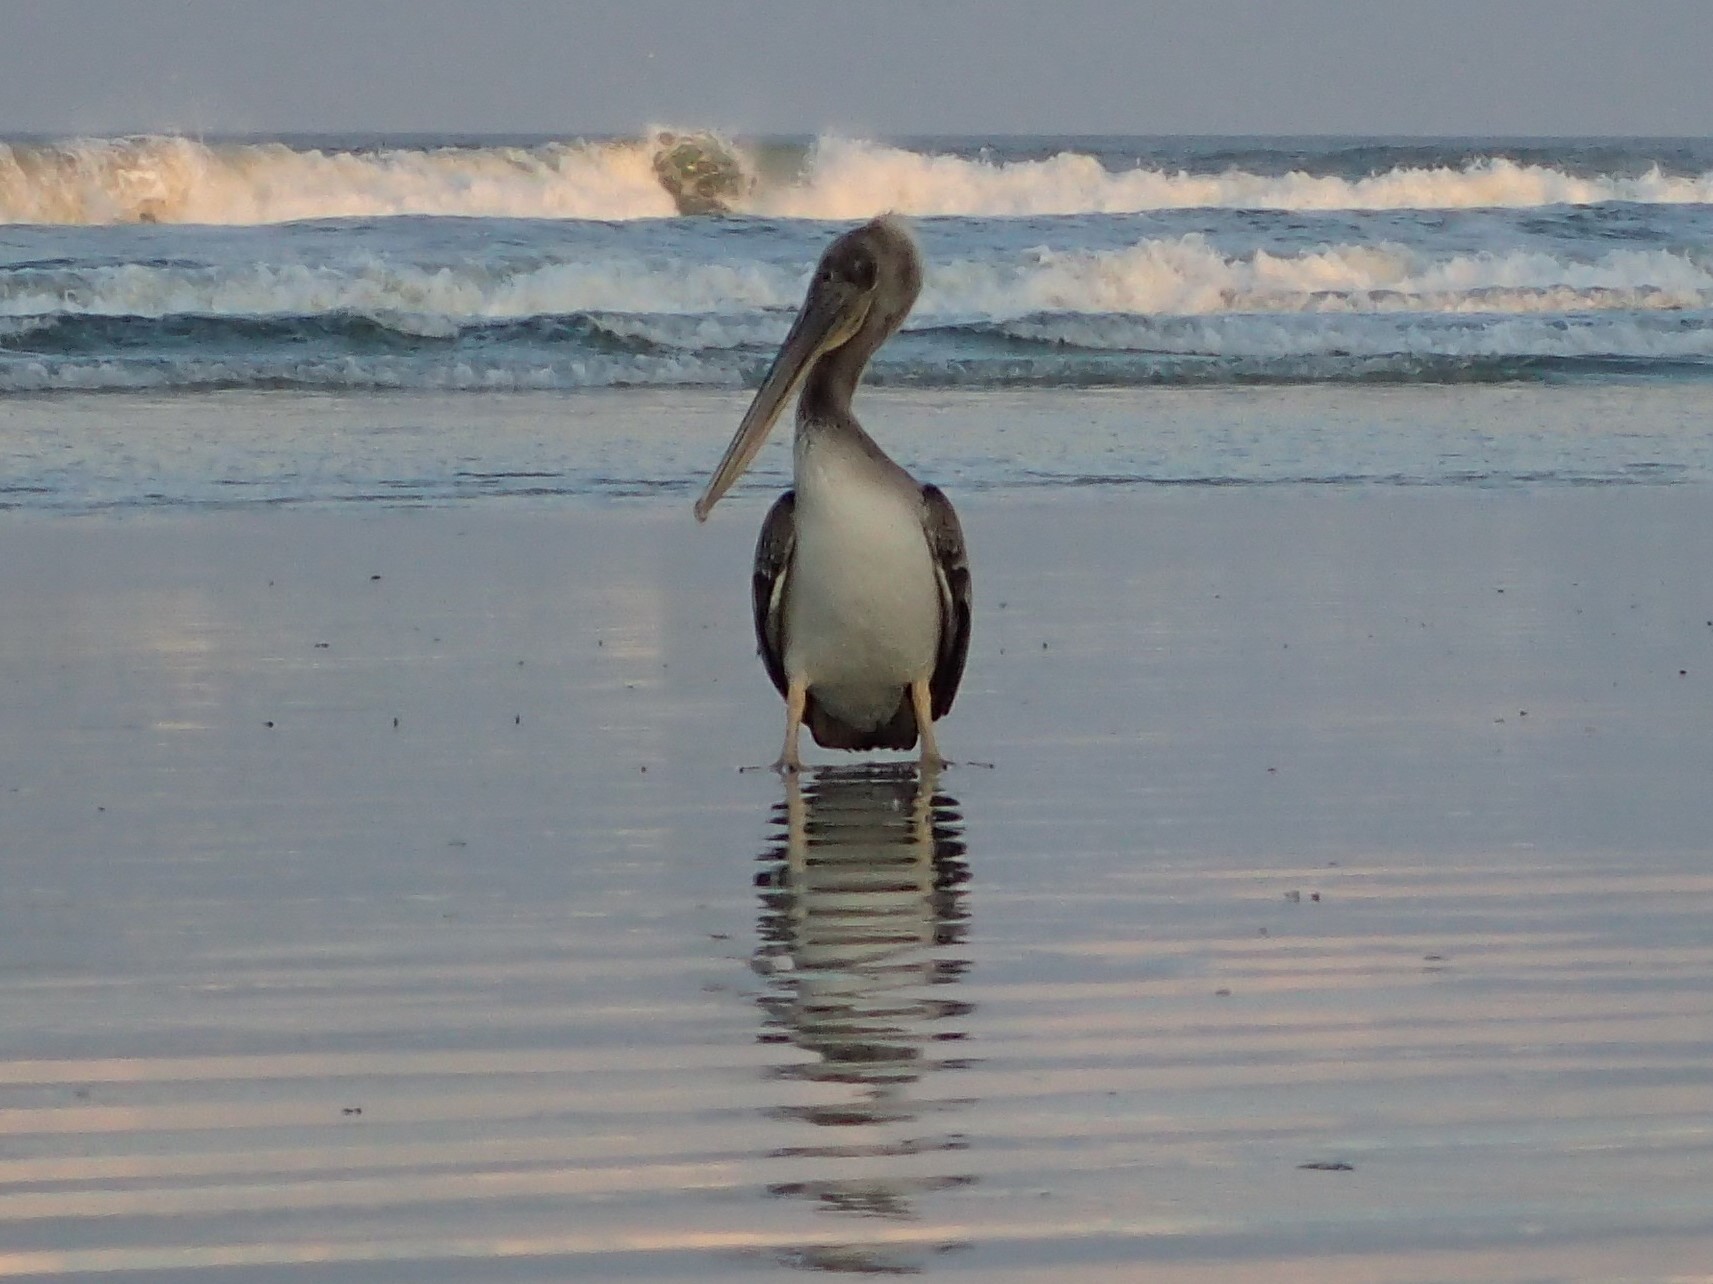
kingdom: Animalia
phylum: Chordata
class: Aves
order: Pelecaniformes
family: Pelecanidae
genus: Pelecanus
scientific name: Pelecanus occidentalis
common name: Brown pelican
